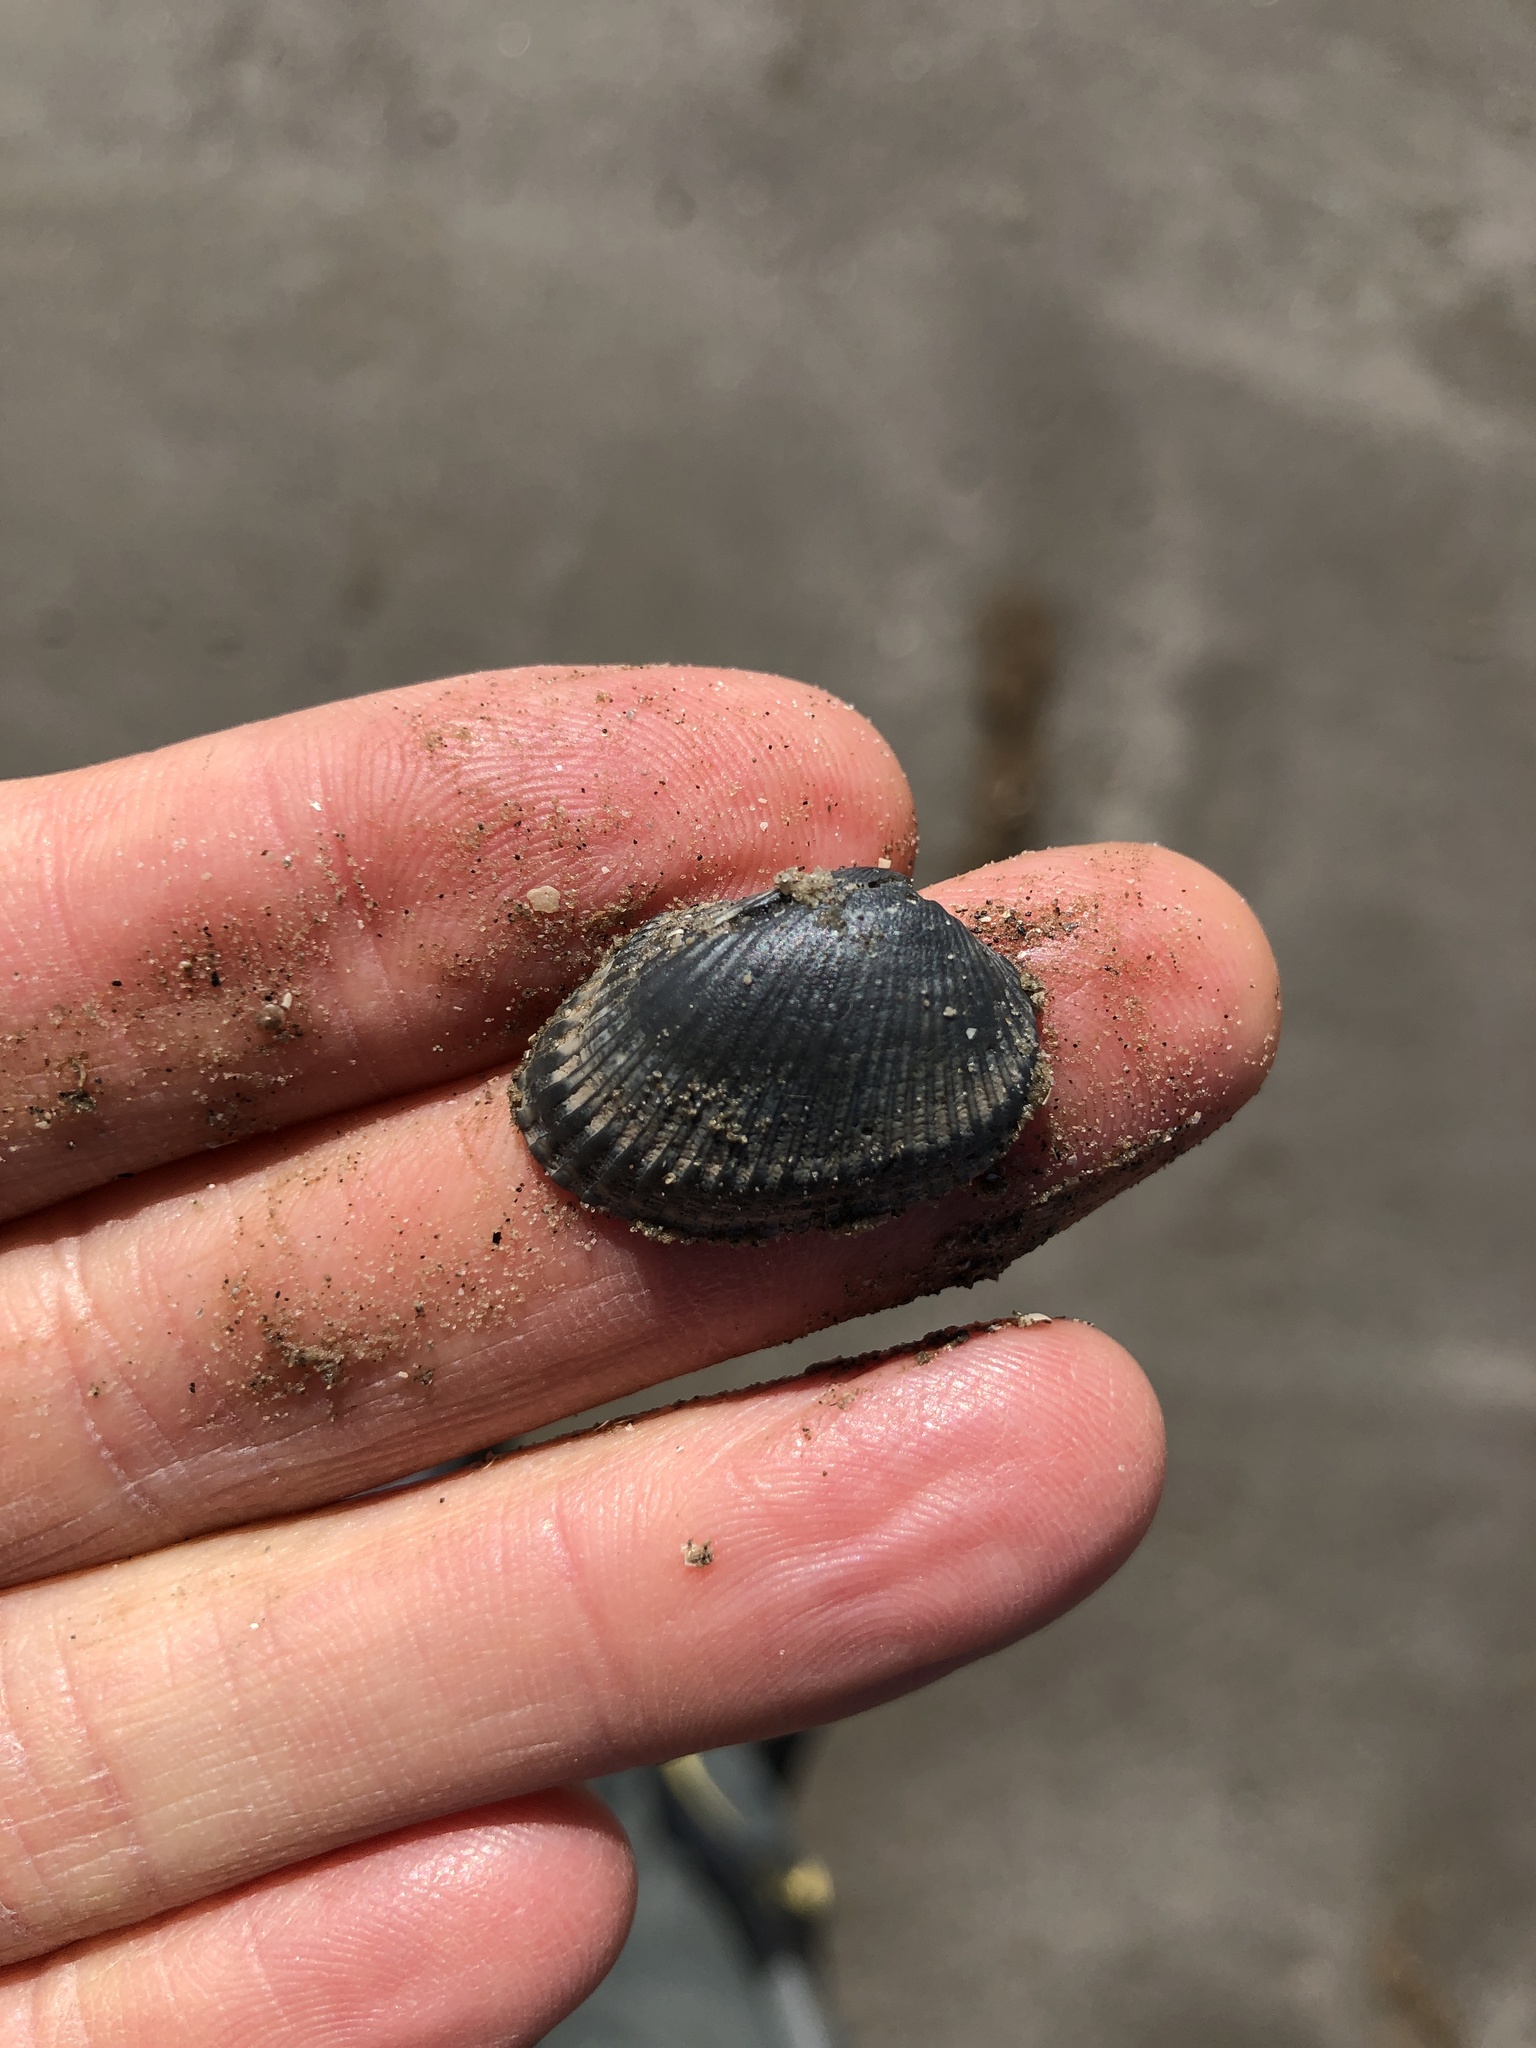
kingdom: Animalia
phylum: Mollusca
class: Bivalvia
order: Arcida
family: Arcidae
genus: Anadara
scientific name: Anadara transversa
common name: Transverse ark
